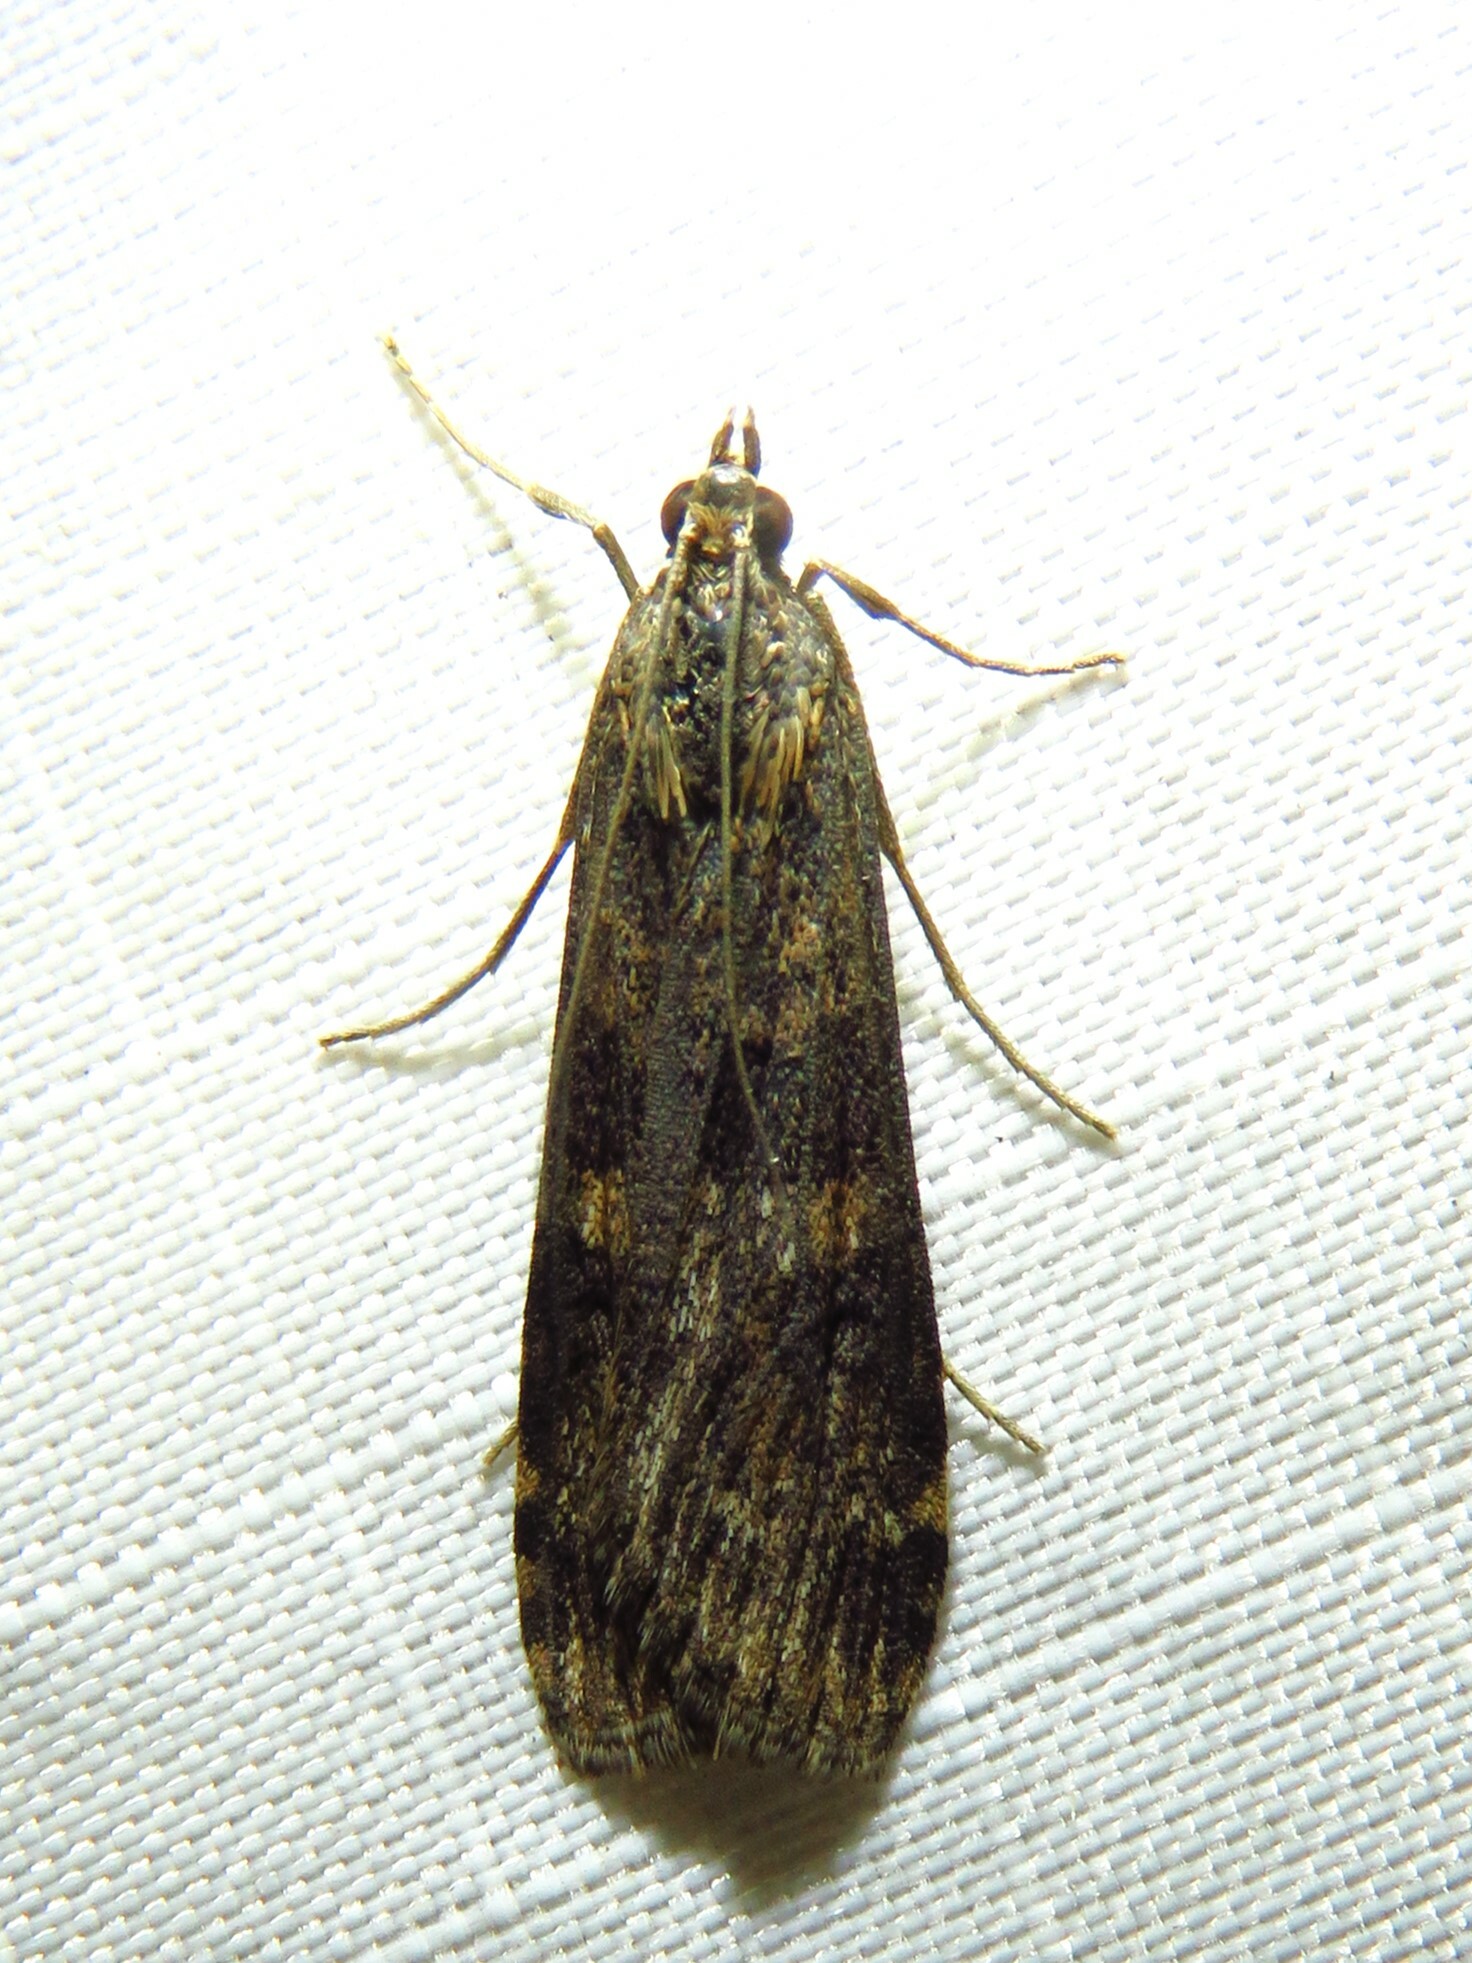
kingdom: Animalia
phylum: Arthropoda
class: Insecta
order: Lepidoptera
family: Crambidae
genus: Nomophila
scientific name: Nomophila nearctica
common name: American rush veneer
